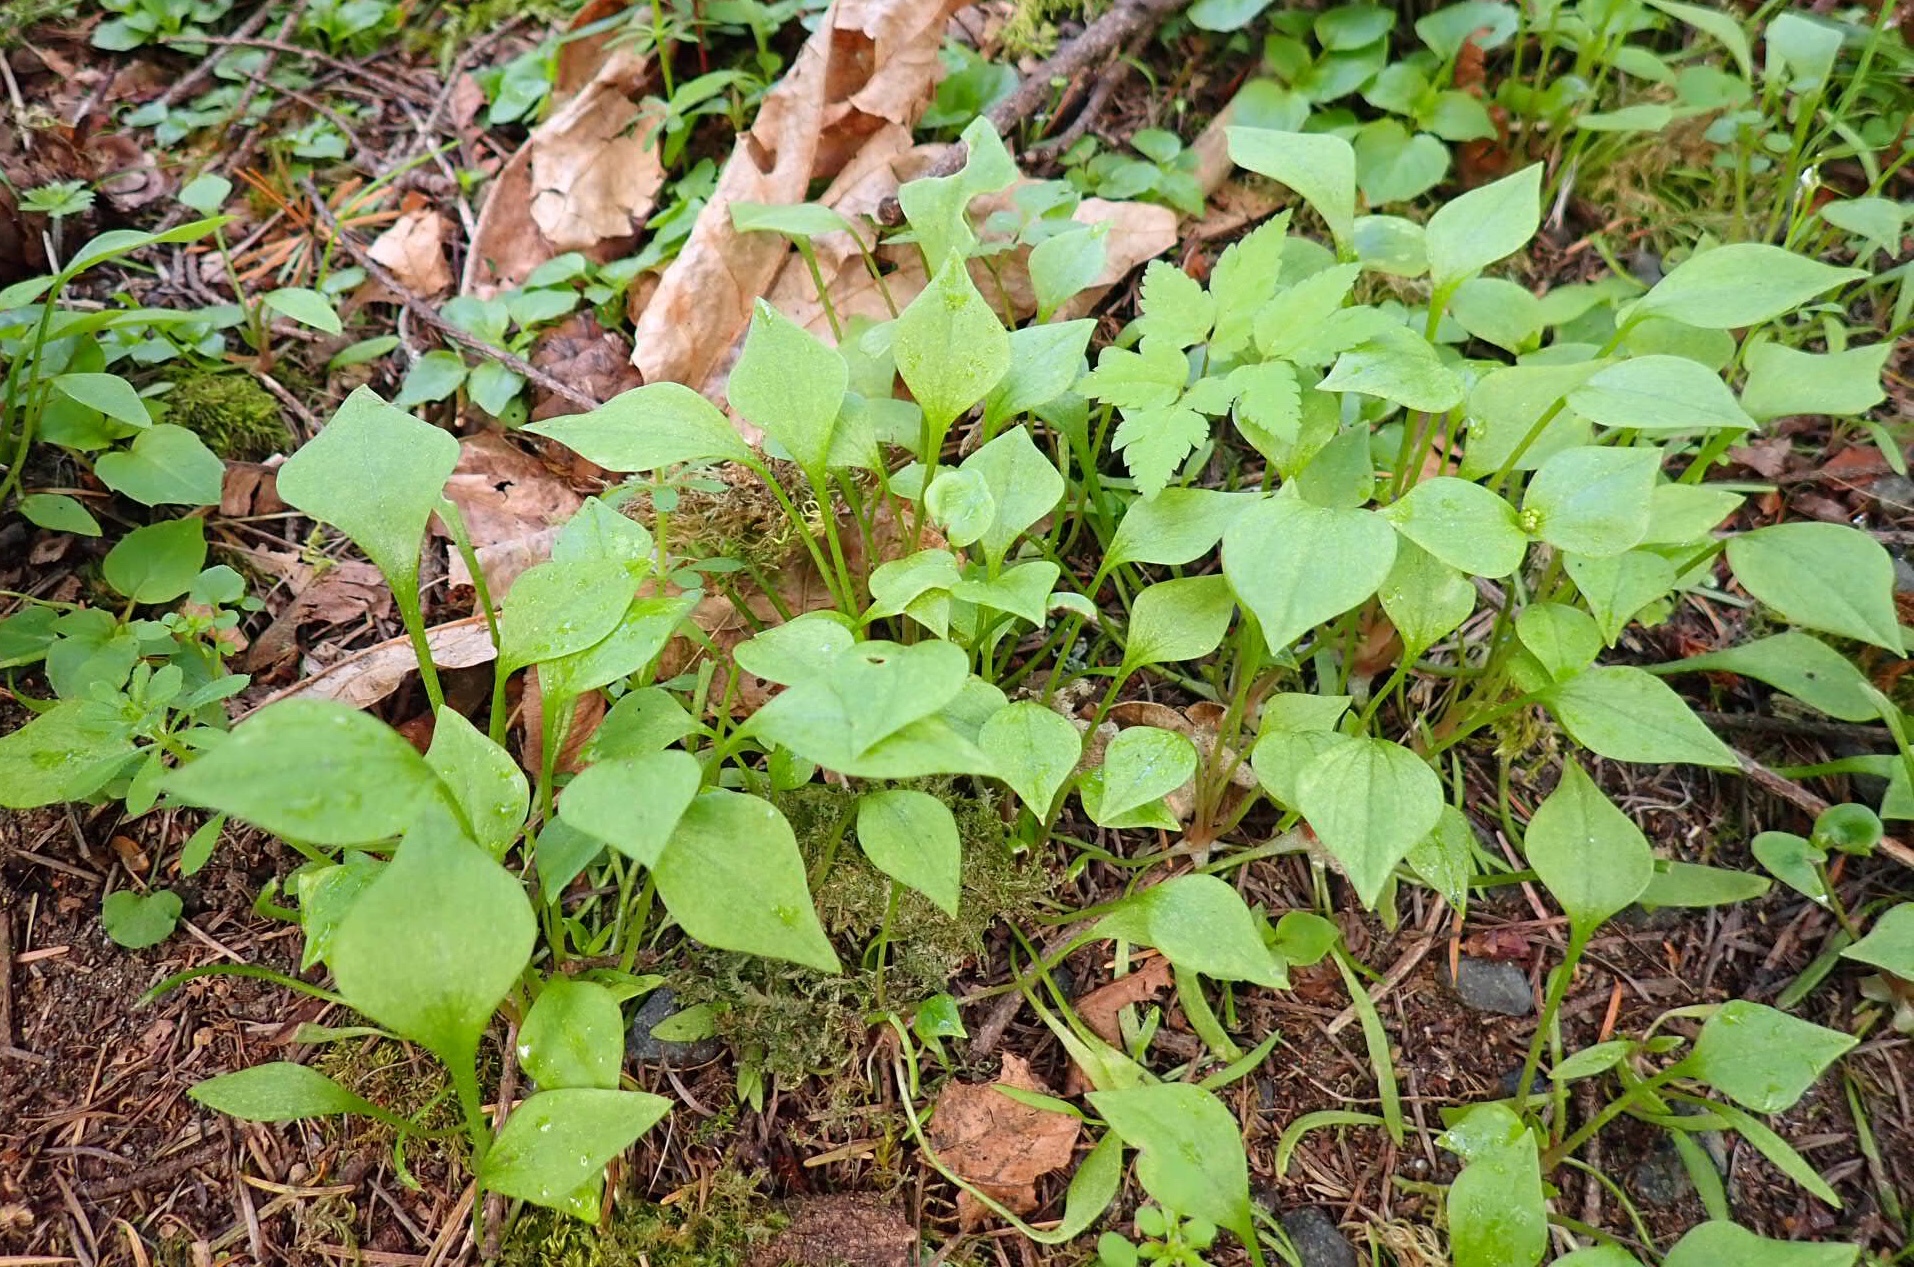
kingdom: Plantae
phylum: Tracheophyta
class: Magnoliopsida
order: Caryophyllales
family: Montiaceae
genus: Claytonia
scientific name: Claytonia sibirica
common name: Pink purslane
